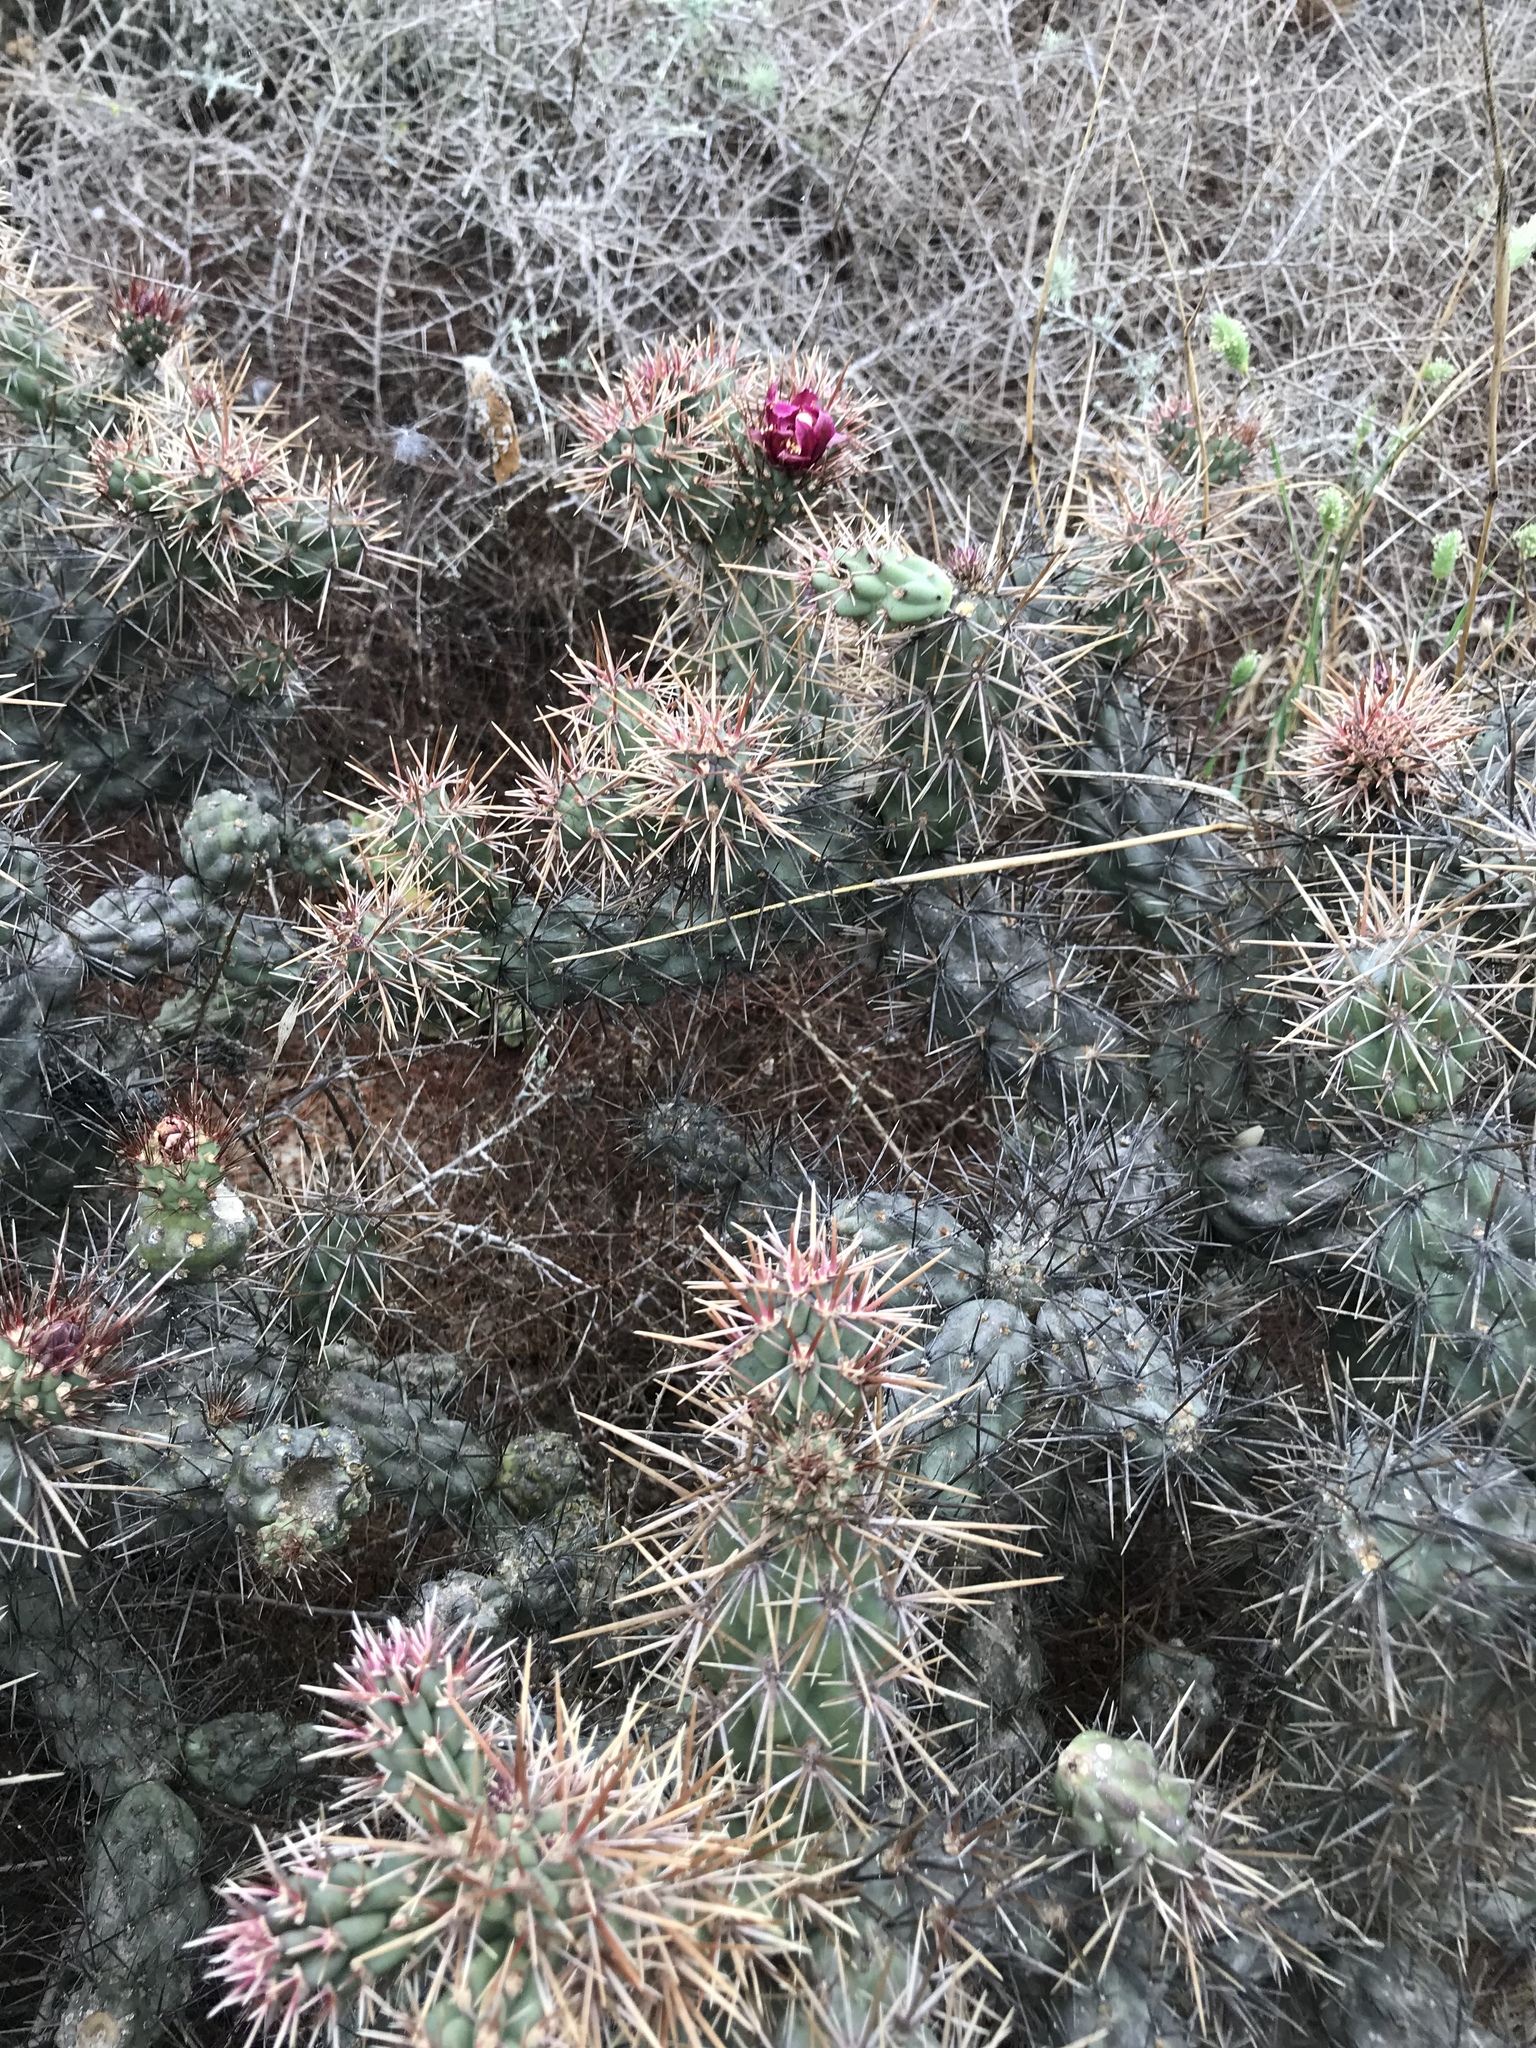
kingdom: Plantae
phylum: Tracheophyta
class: Magnoliopsida
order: Caryophyllales
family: Cactaceae
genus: Cylindropuntia
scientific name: Cylindropuntia prolifera
